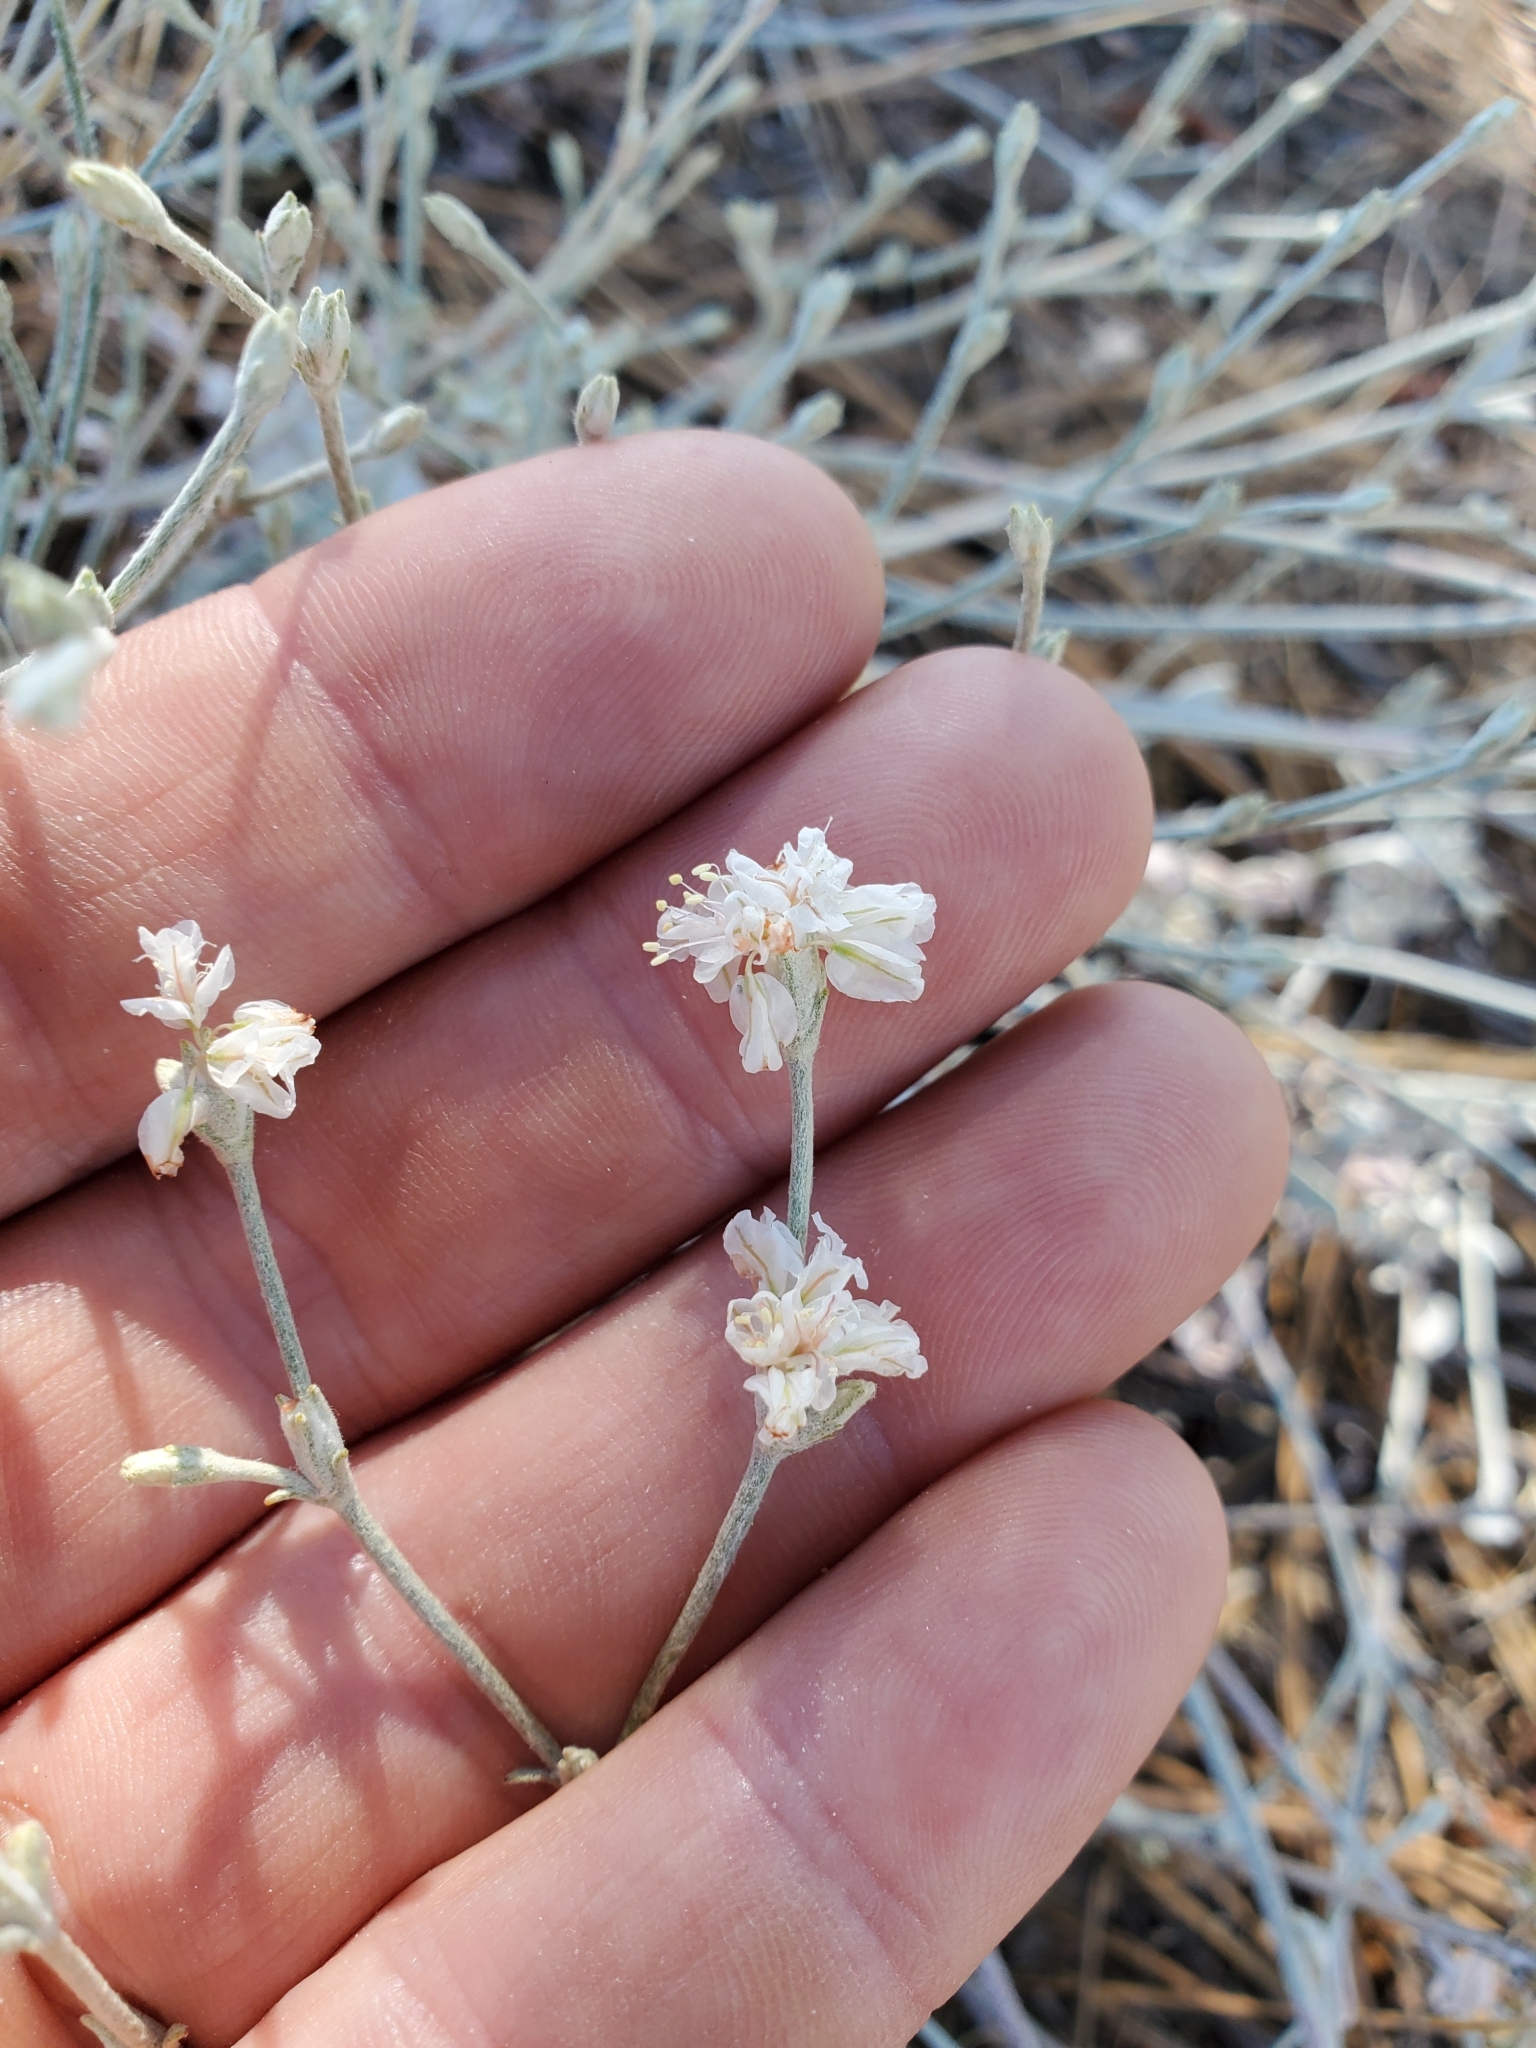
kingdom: Plantae
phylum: Tracheophyta
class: Magnoliopsida
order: Caryophyllales
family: Polygonaceae
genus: Eriogonum
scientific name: Eriogonum niveum
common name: Snow wild buckwheat
